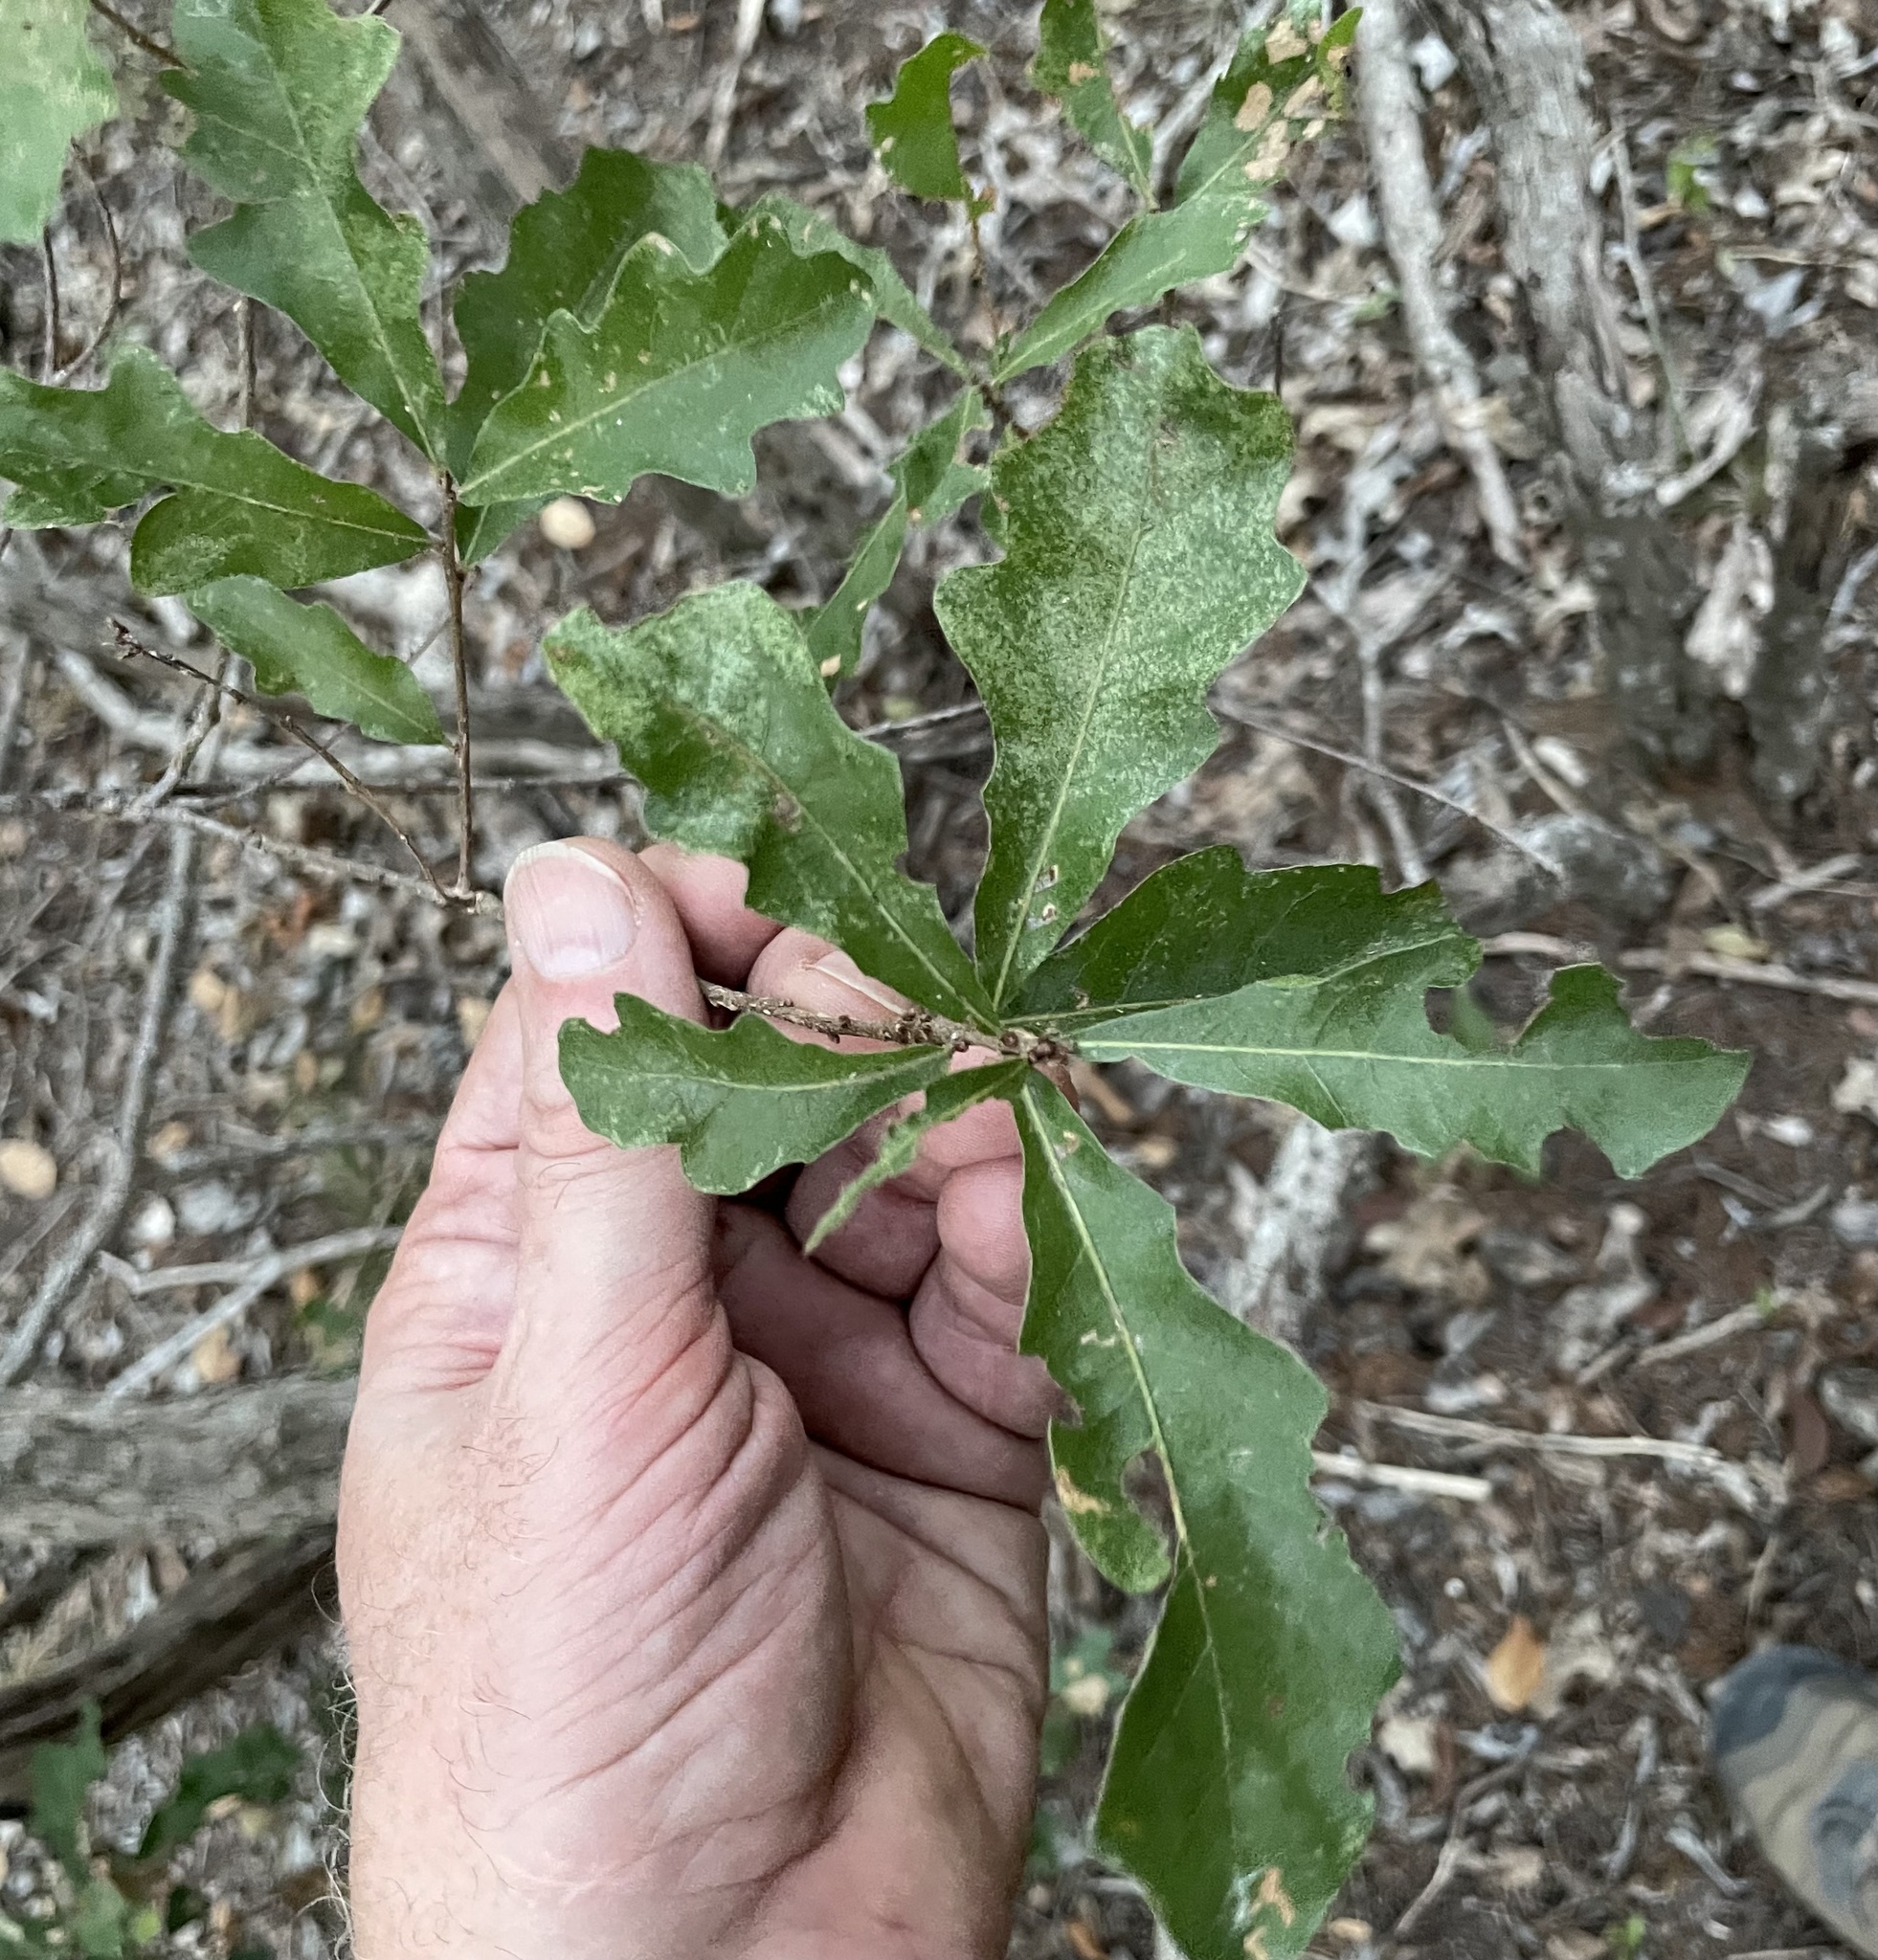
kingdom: Plantae
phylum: Tracheophyta
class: Magnoliopsida
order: Fagales
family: Fagaceae
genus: Quercus
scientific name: Quercus sinuata
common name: Durand oak
